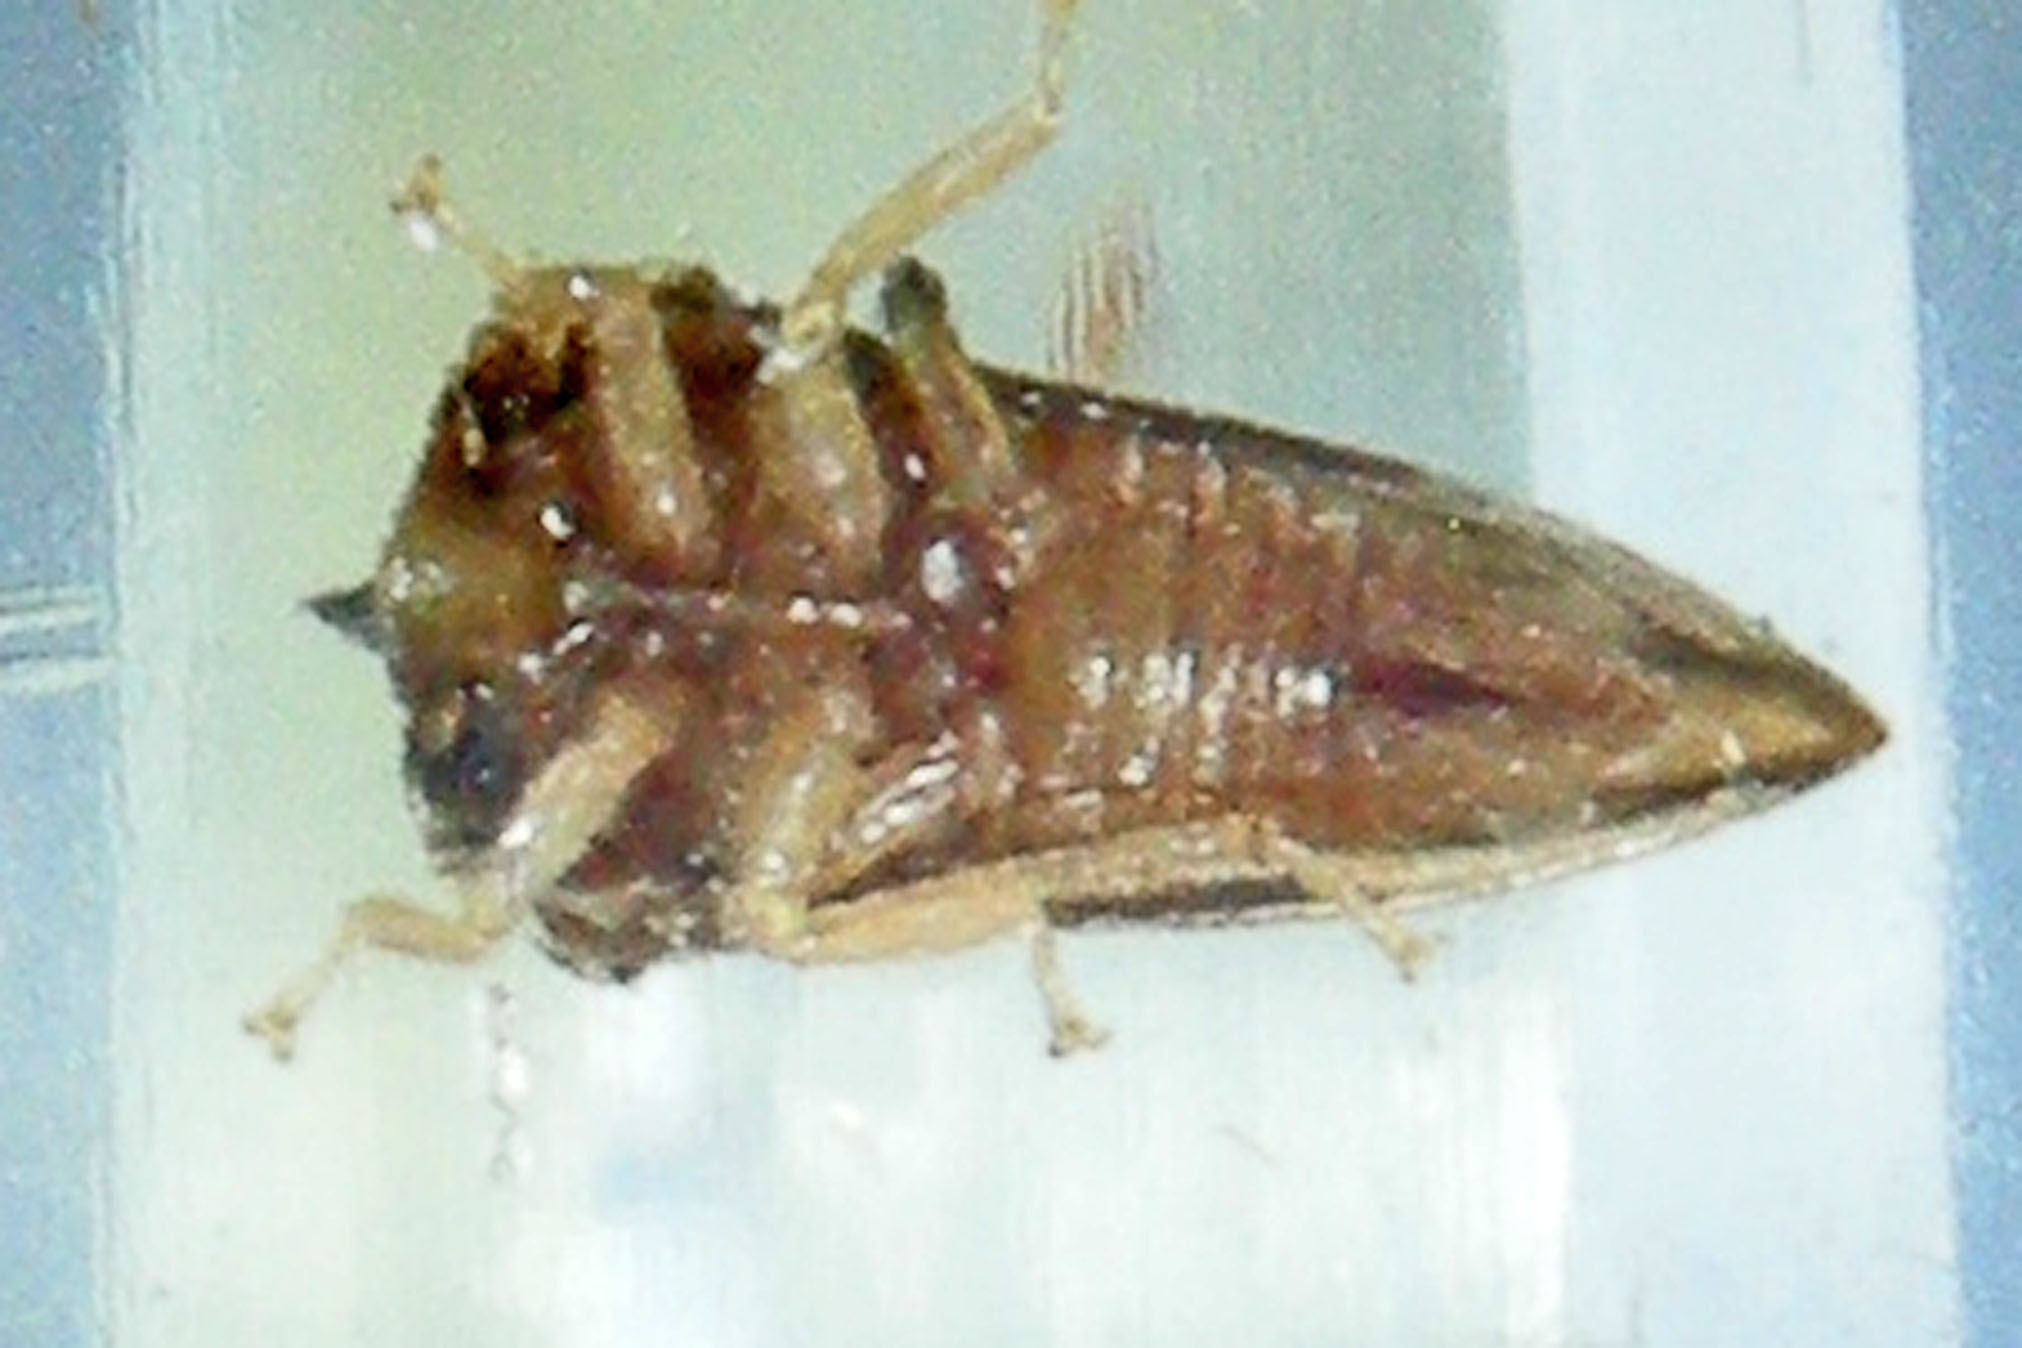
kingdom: Animalia
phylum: Arthropoda
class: Insecta
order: Hemiptera
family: Membracidae
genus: Entylia
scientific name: Entylia carinata
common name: Keeled treehopper
